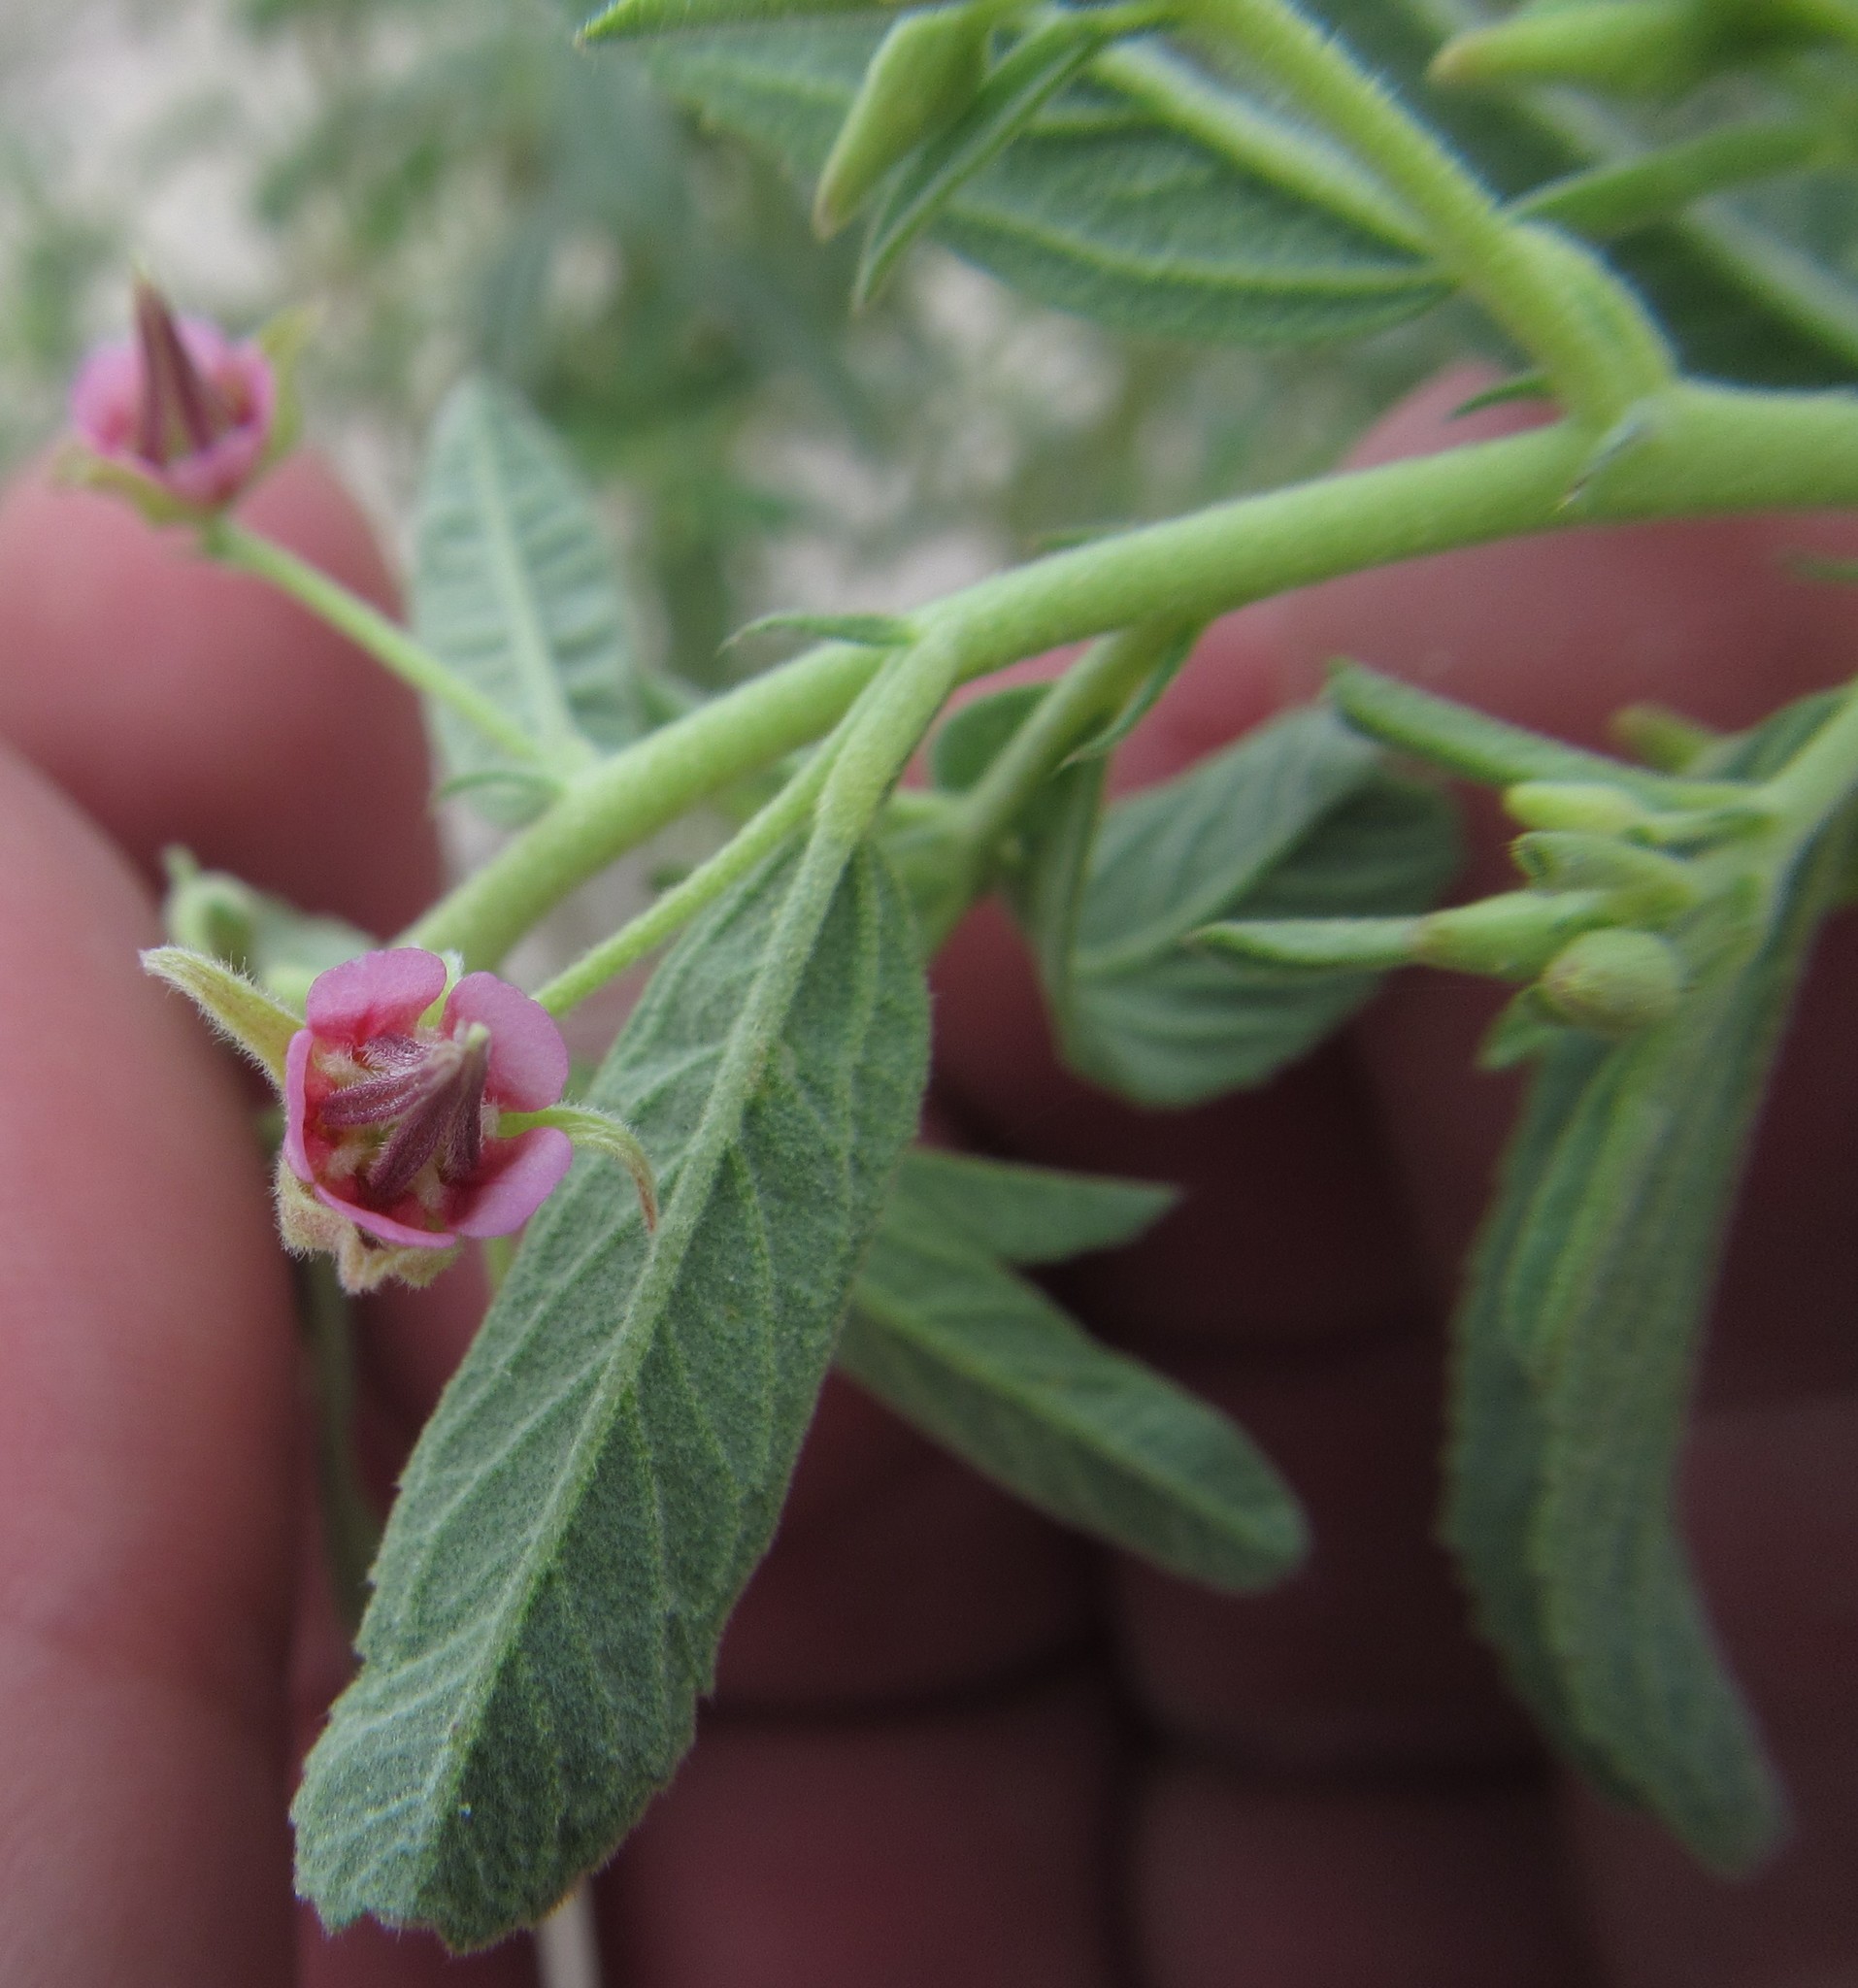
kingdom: Plantae
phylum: Tracheophyta
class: Magnoliopsida
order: Malvales
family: Malvaceae
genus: Hermannia
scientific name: Hermannia glanduligera
